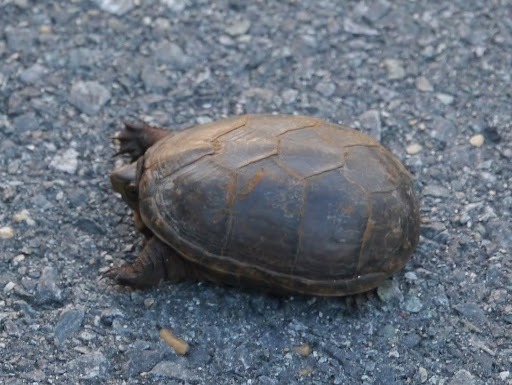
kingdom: Animalia
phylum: Chordata
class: Testudines
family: Kinosternidae
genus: Kinosternon
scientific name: Kinosternon subrubrum
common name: Eastern mud turtle
